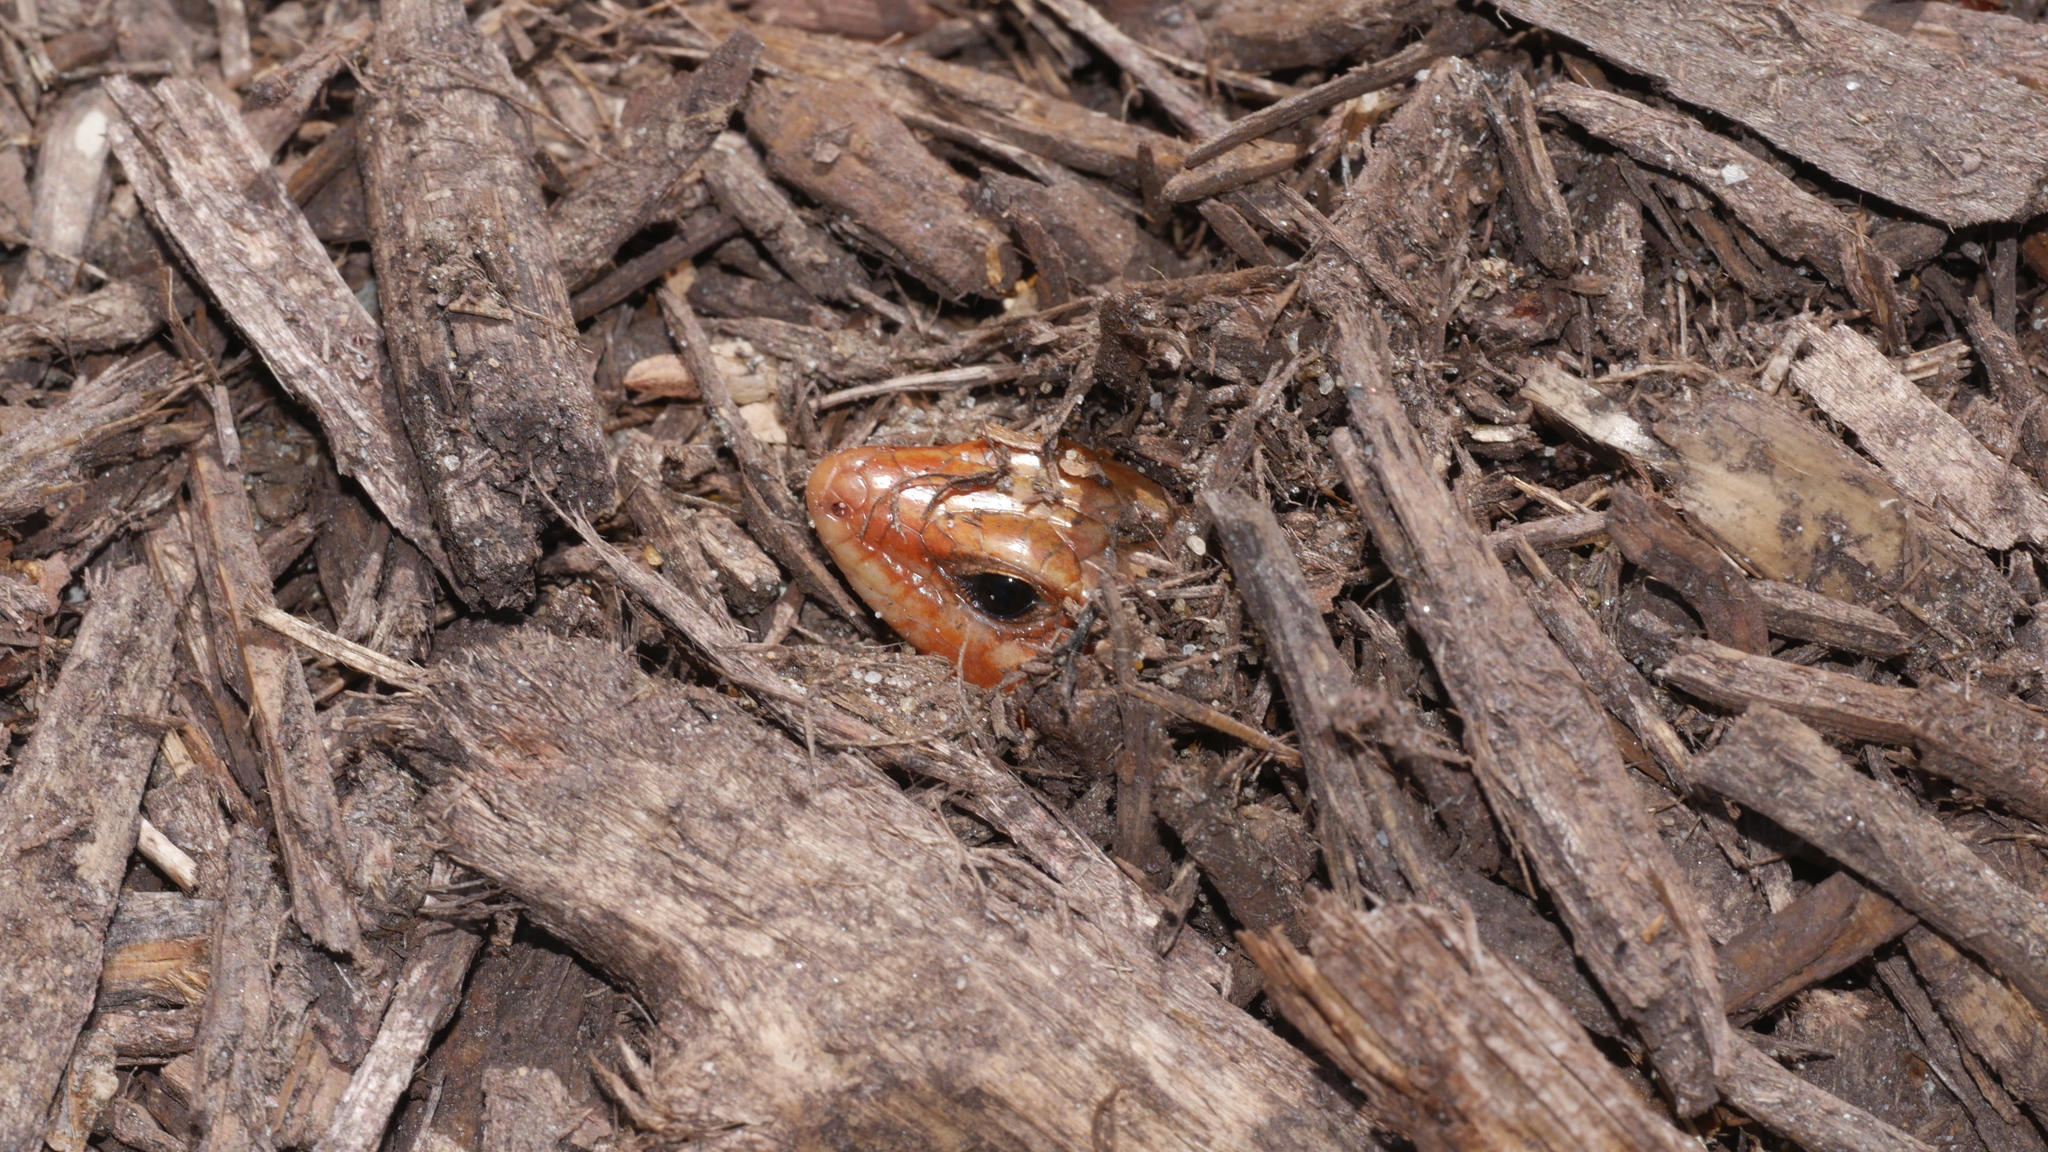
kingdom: Animalia
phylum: Chordata
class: Squamata
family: Scincidae
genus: Plestiodon
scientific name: Plestiodon laticeps
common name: Broadhead skink
